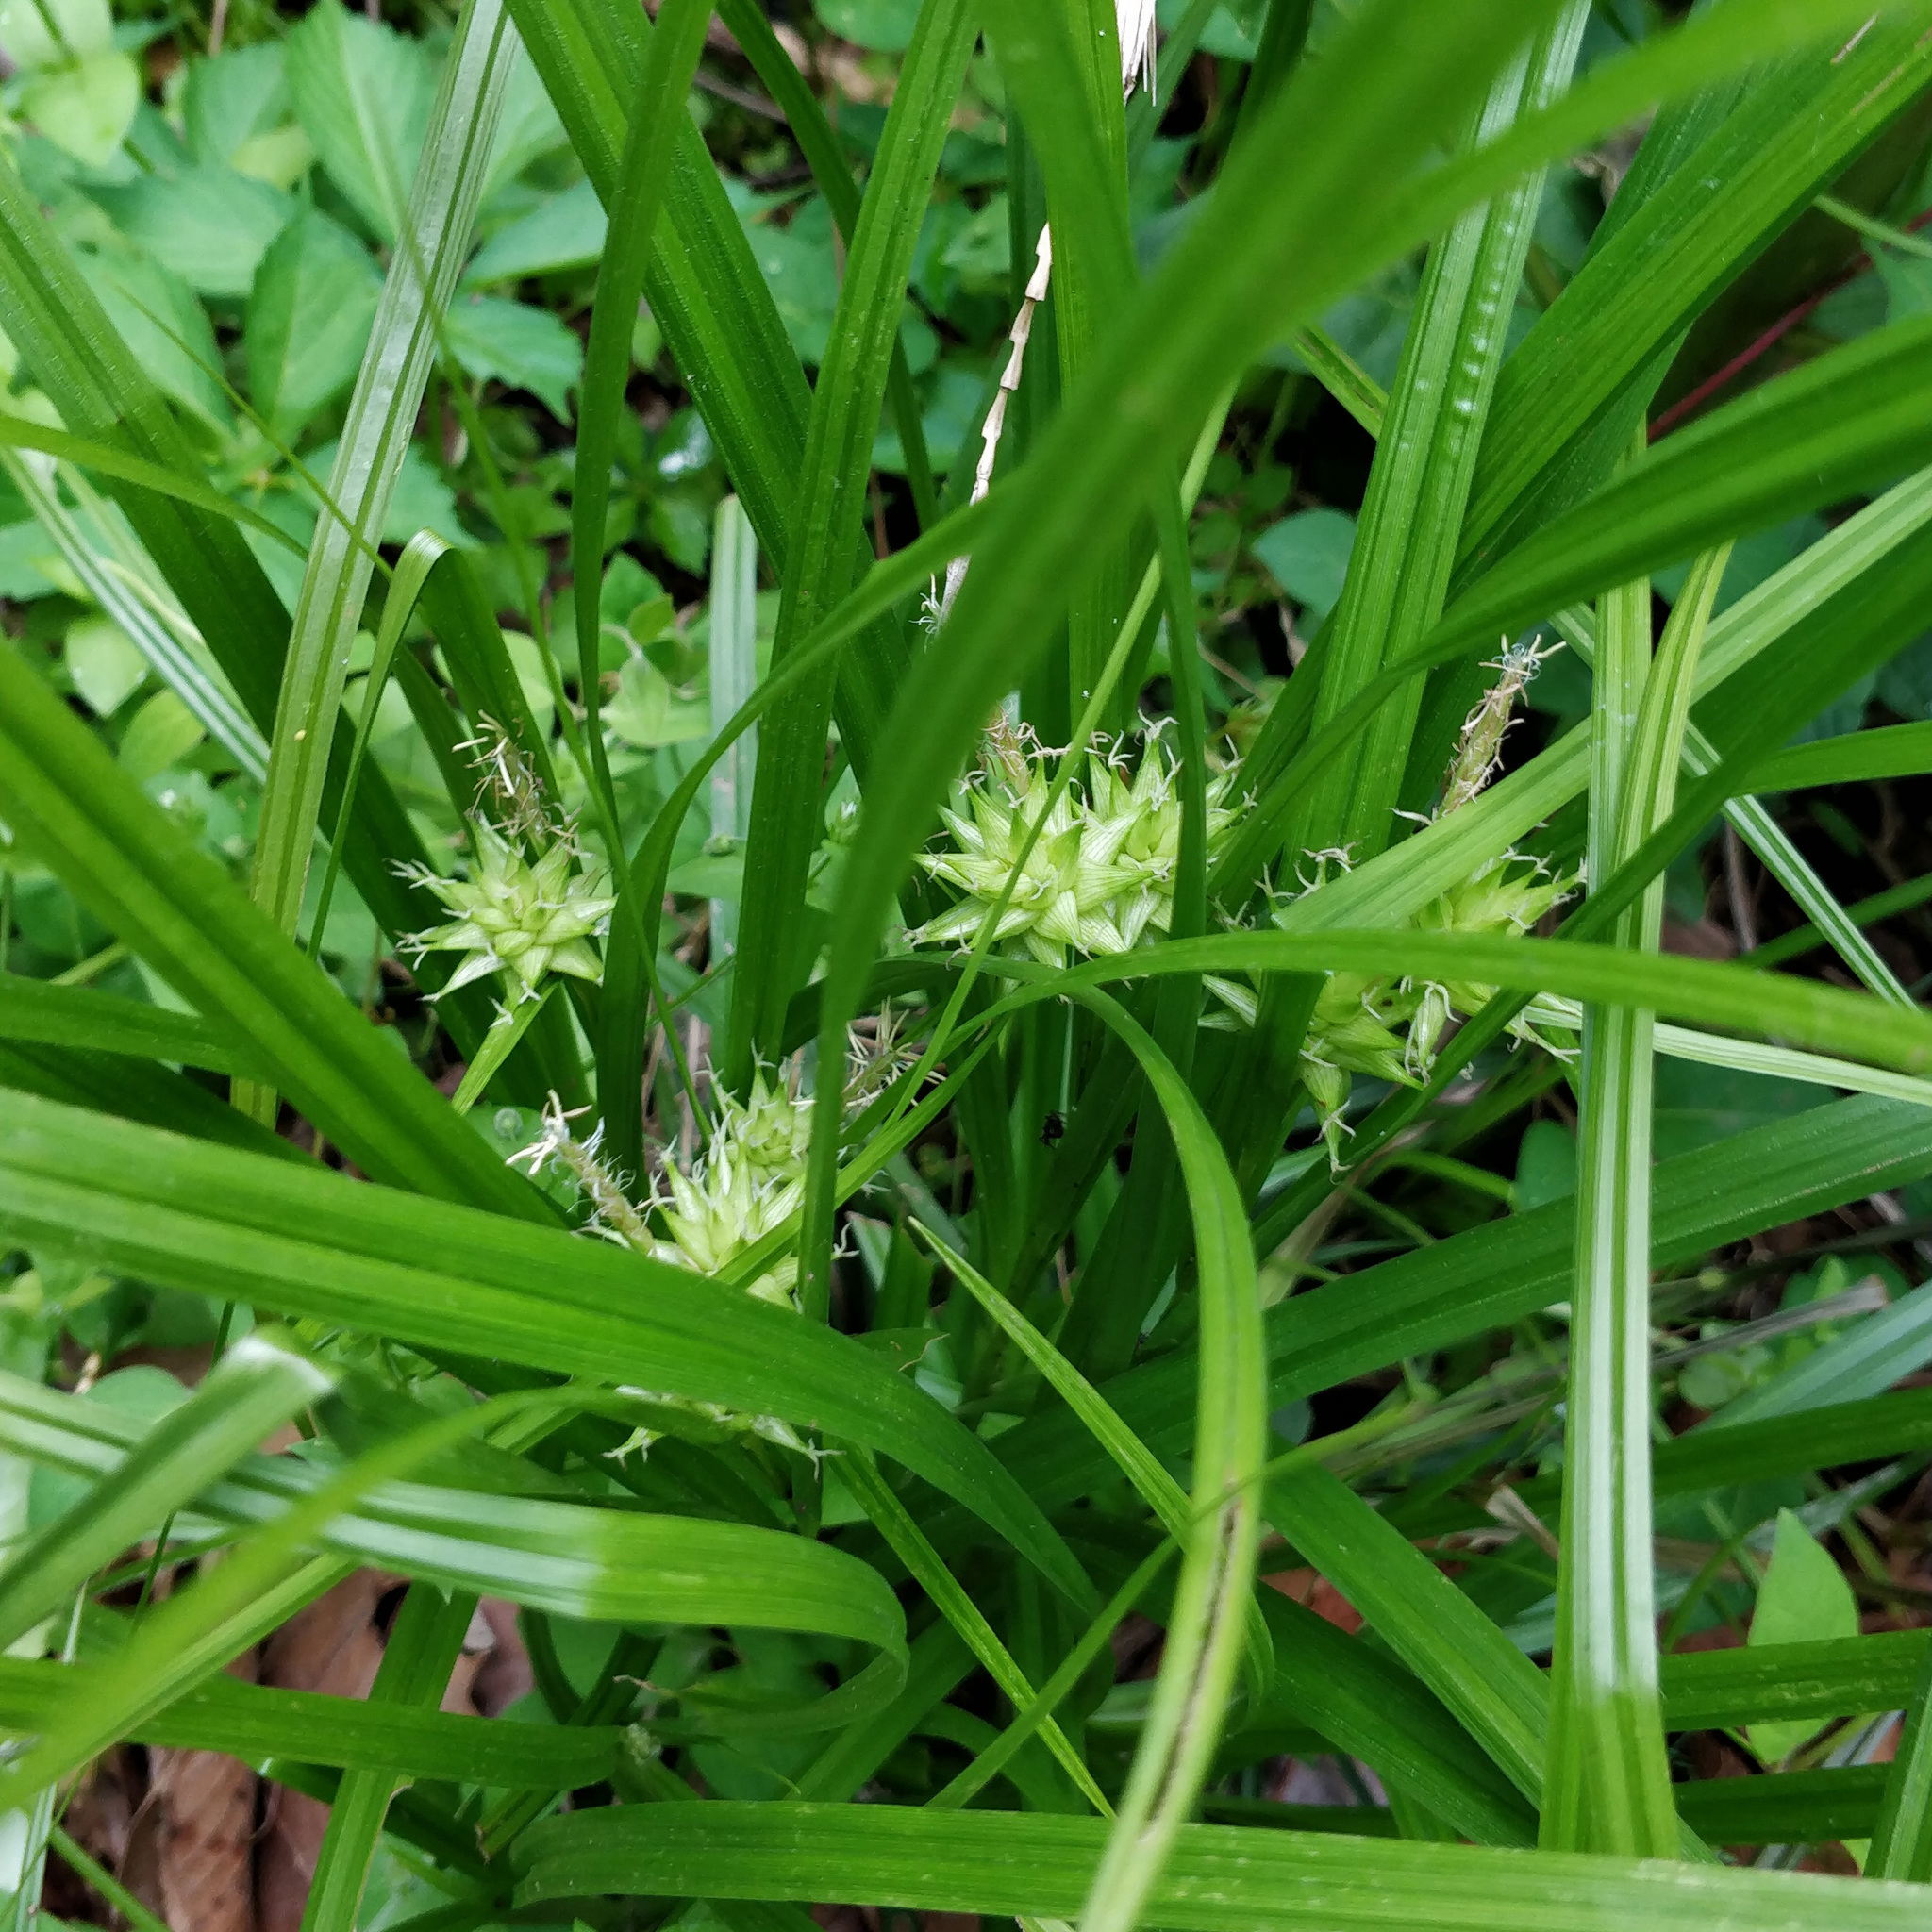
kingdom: Plantae
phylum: Tracheophyta
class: Liliopsida
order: Poales
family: Cyperaceae
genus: Carex
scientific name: Carex grayi
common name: Asa gray's sedge
